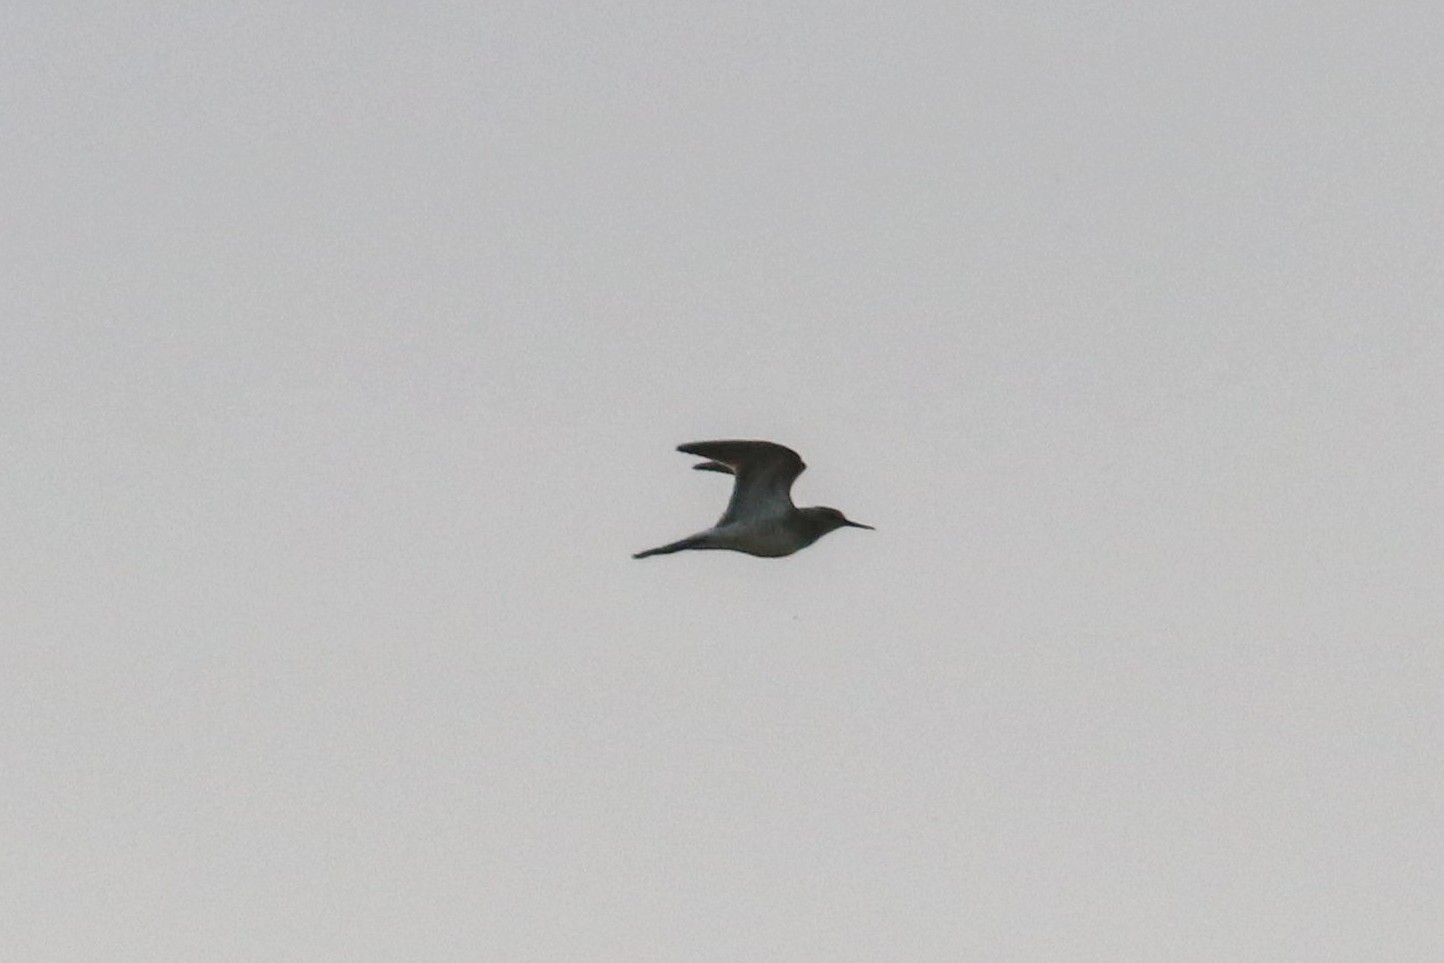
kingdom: Animalia
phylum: Chordata
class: Aves
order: Charadriiformes
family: Scolopacidae
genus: Tringa
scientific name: Tringa glareola
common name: Wood sandpiper
